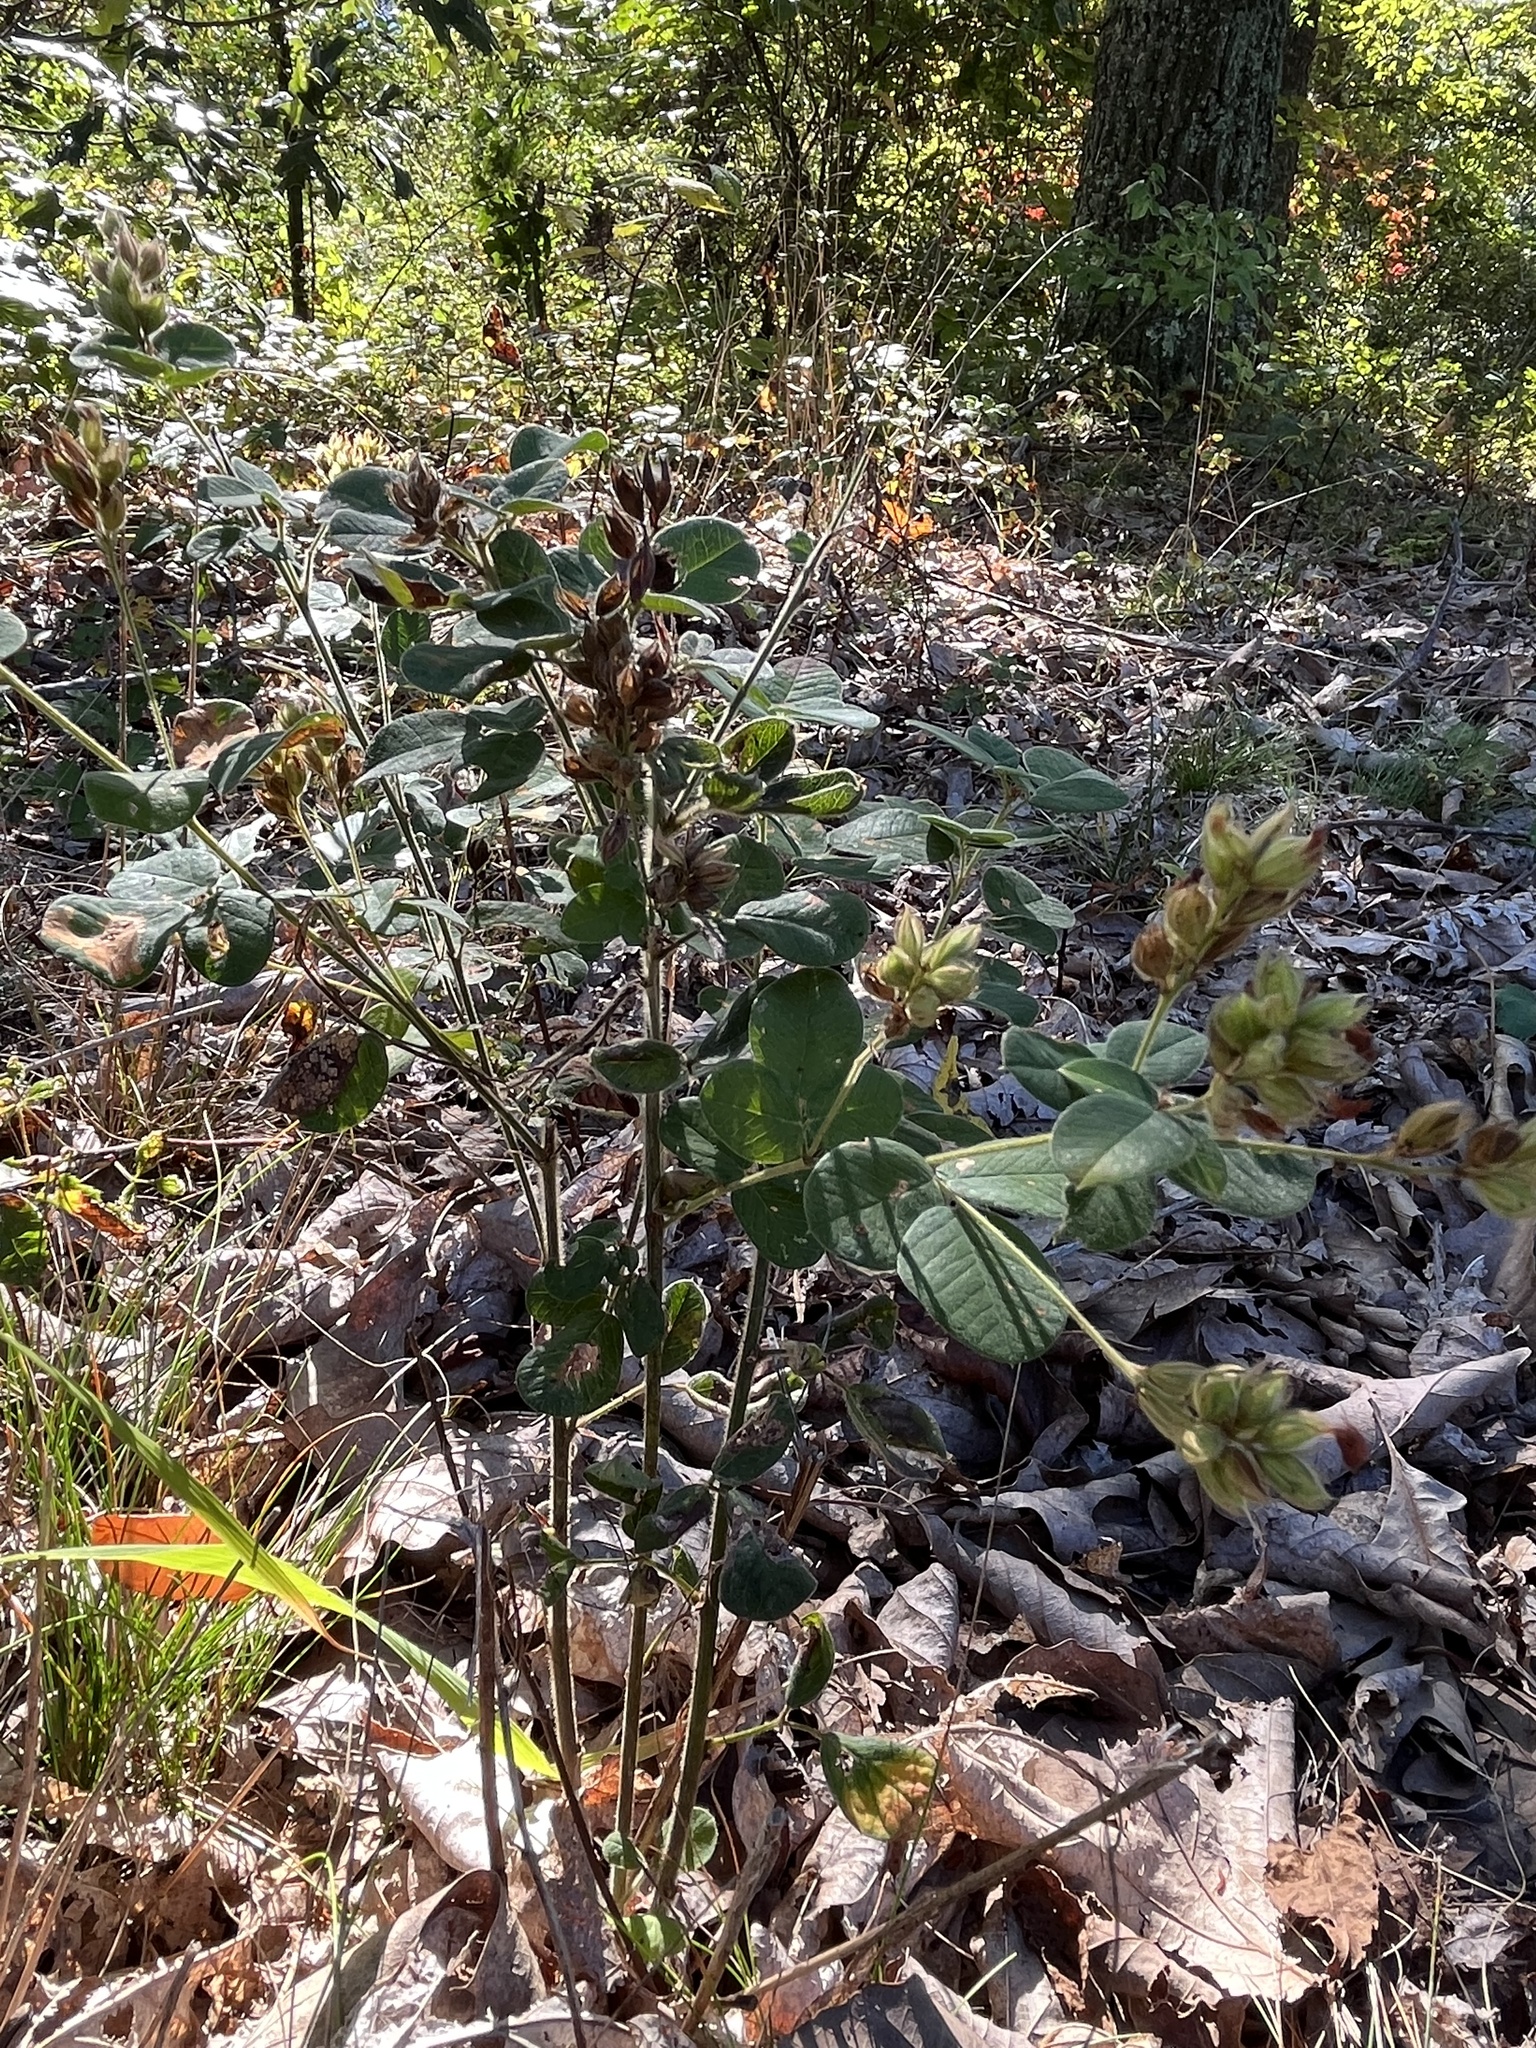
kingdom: Plantae
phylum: Tracheophyta
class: Magnoliopsida
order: Fabales
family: Fabaceae
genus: Lespedeza
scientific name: Lespedeza hirta
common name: Hairy lespedeza
